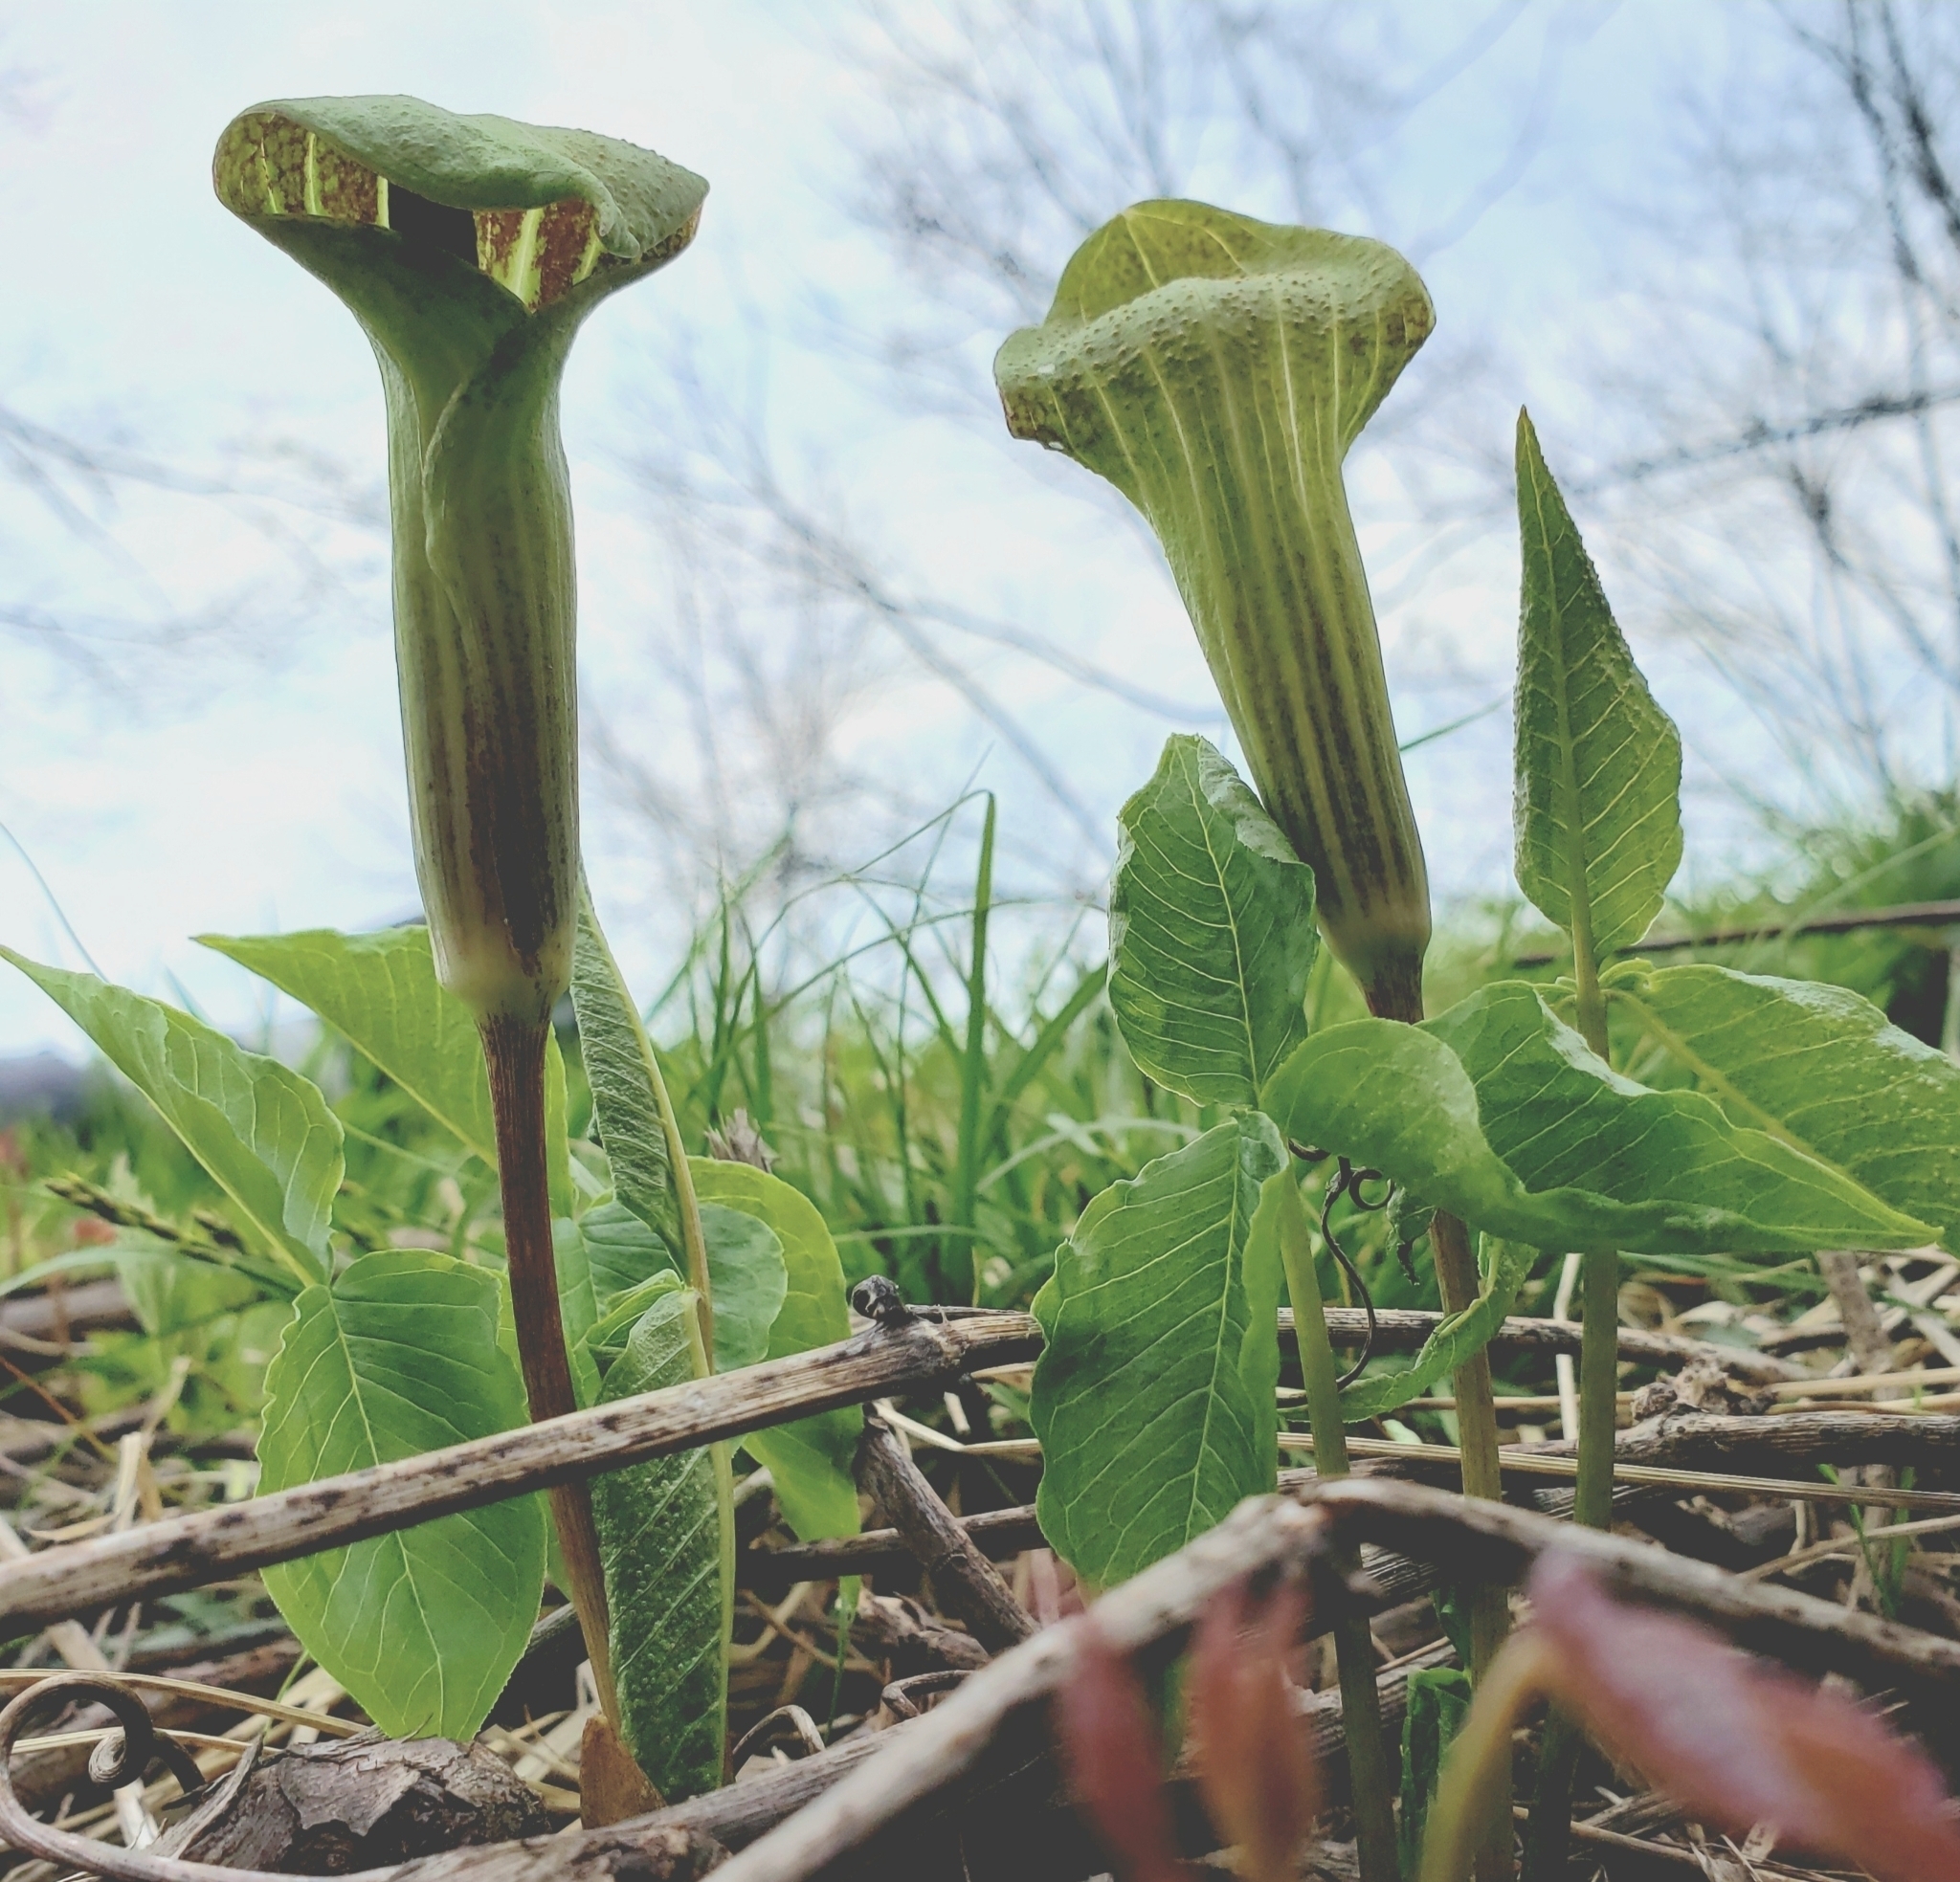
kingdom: Plantae
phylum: Tracheophyta
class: Liliopsida
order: Alismatales
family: Araceae
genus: Arisaema
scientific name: Arisaema triphyllum
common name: Jack-in-the-pulpit
